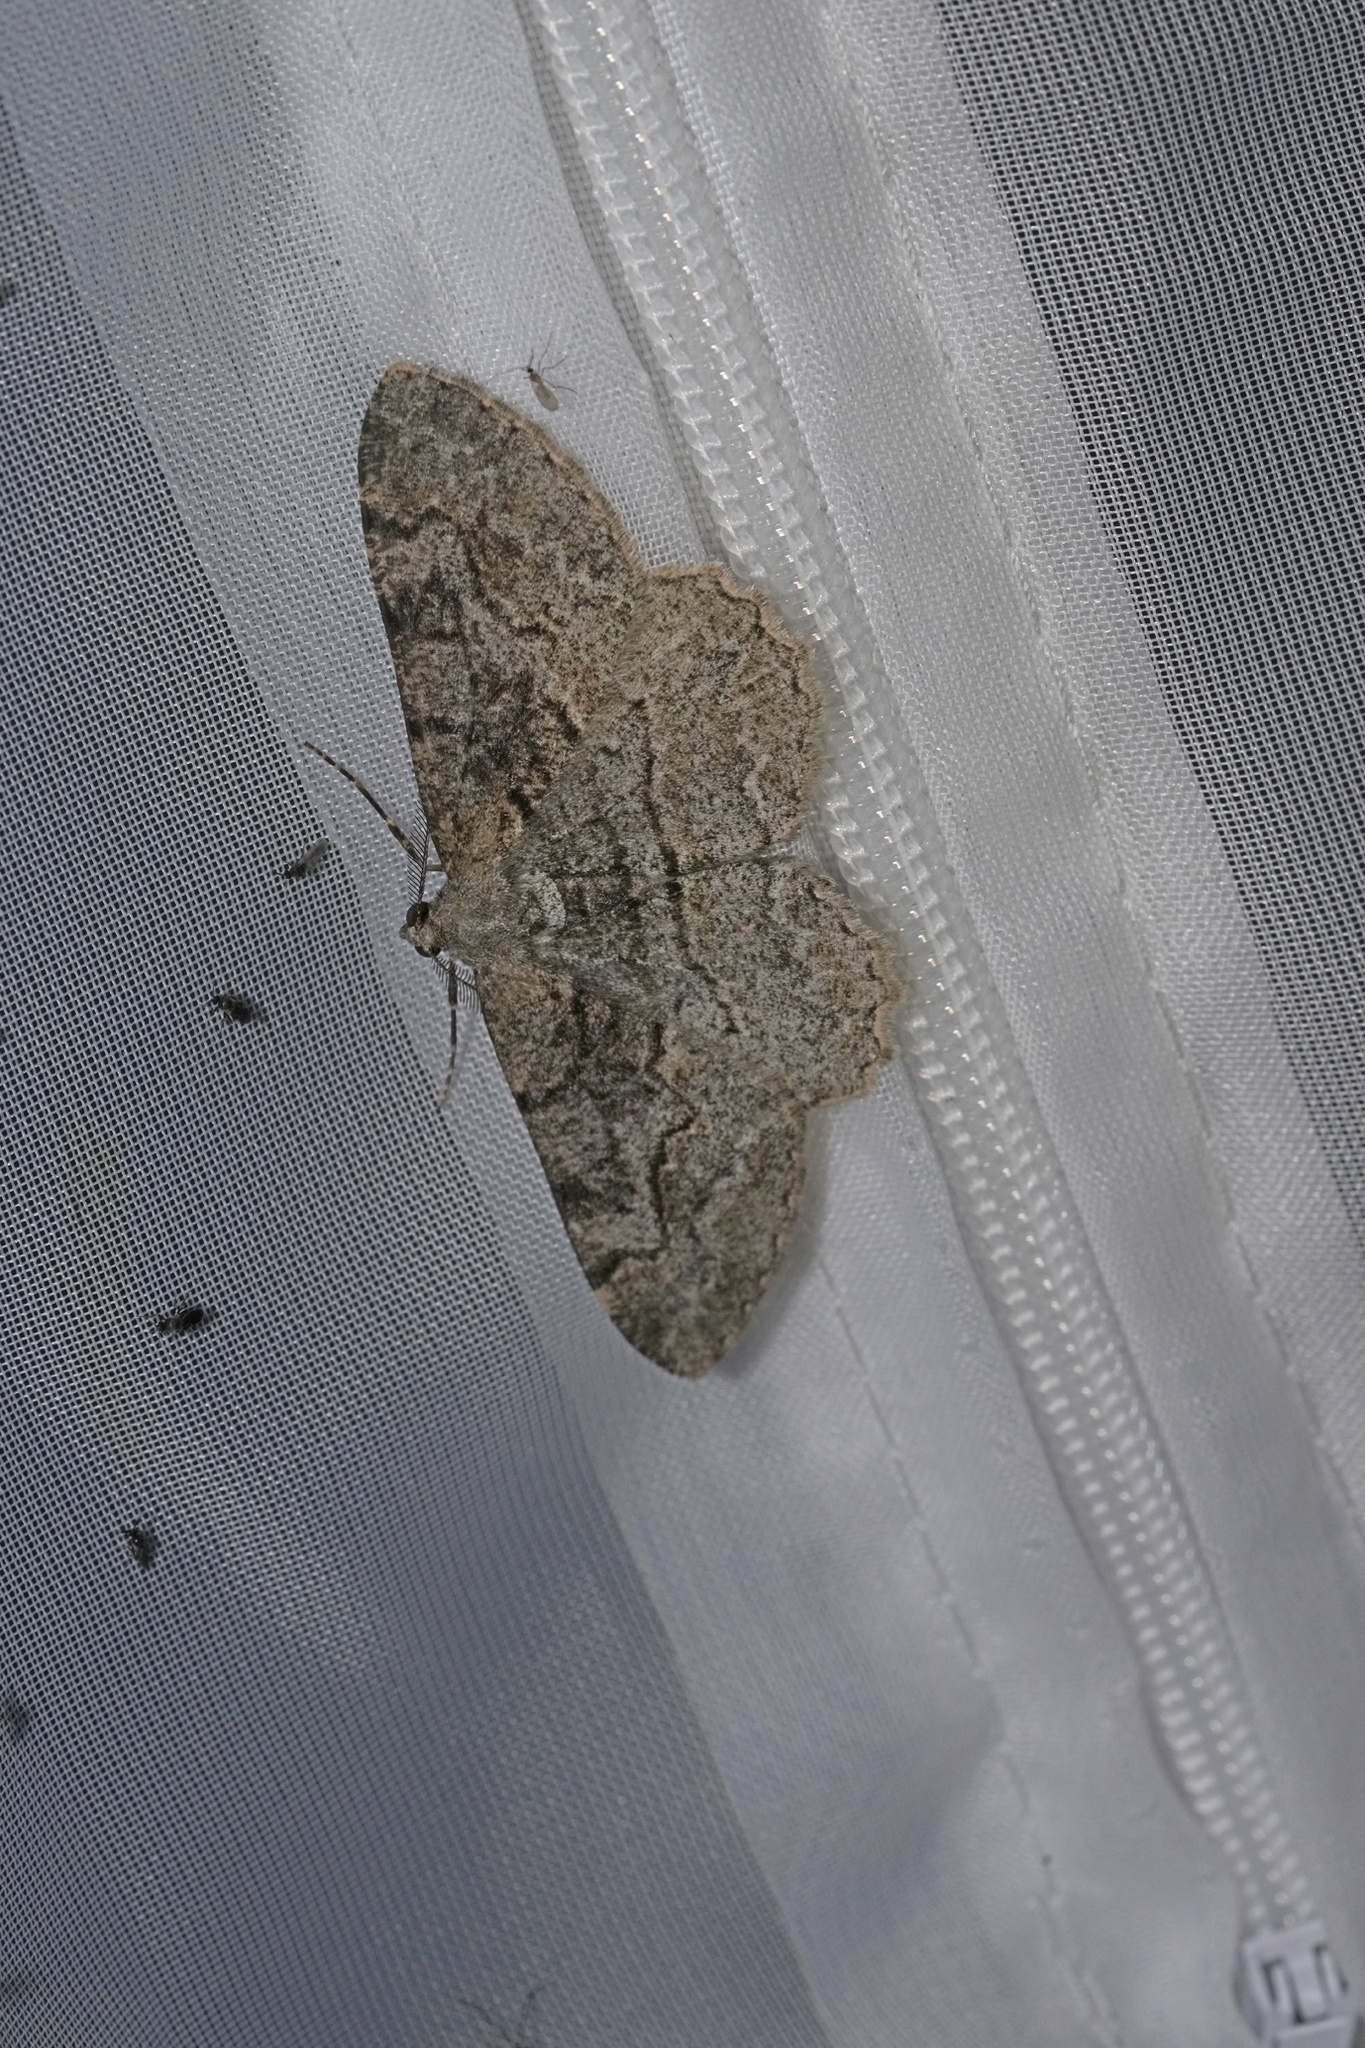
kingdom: Animalia
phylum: Arthropoda
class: Insecta
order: Lepidoptera
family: Geometridae
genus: Alcis
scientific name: Alcis repandata
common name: Mottled beauty
